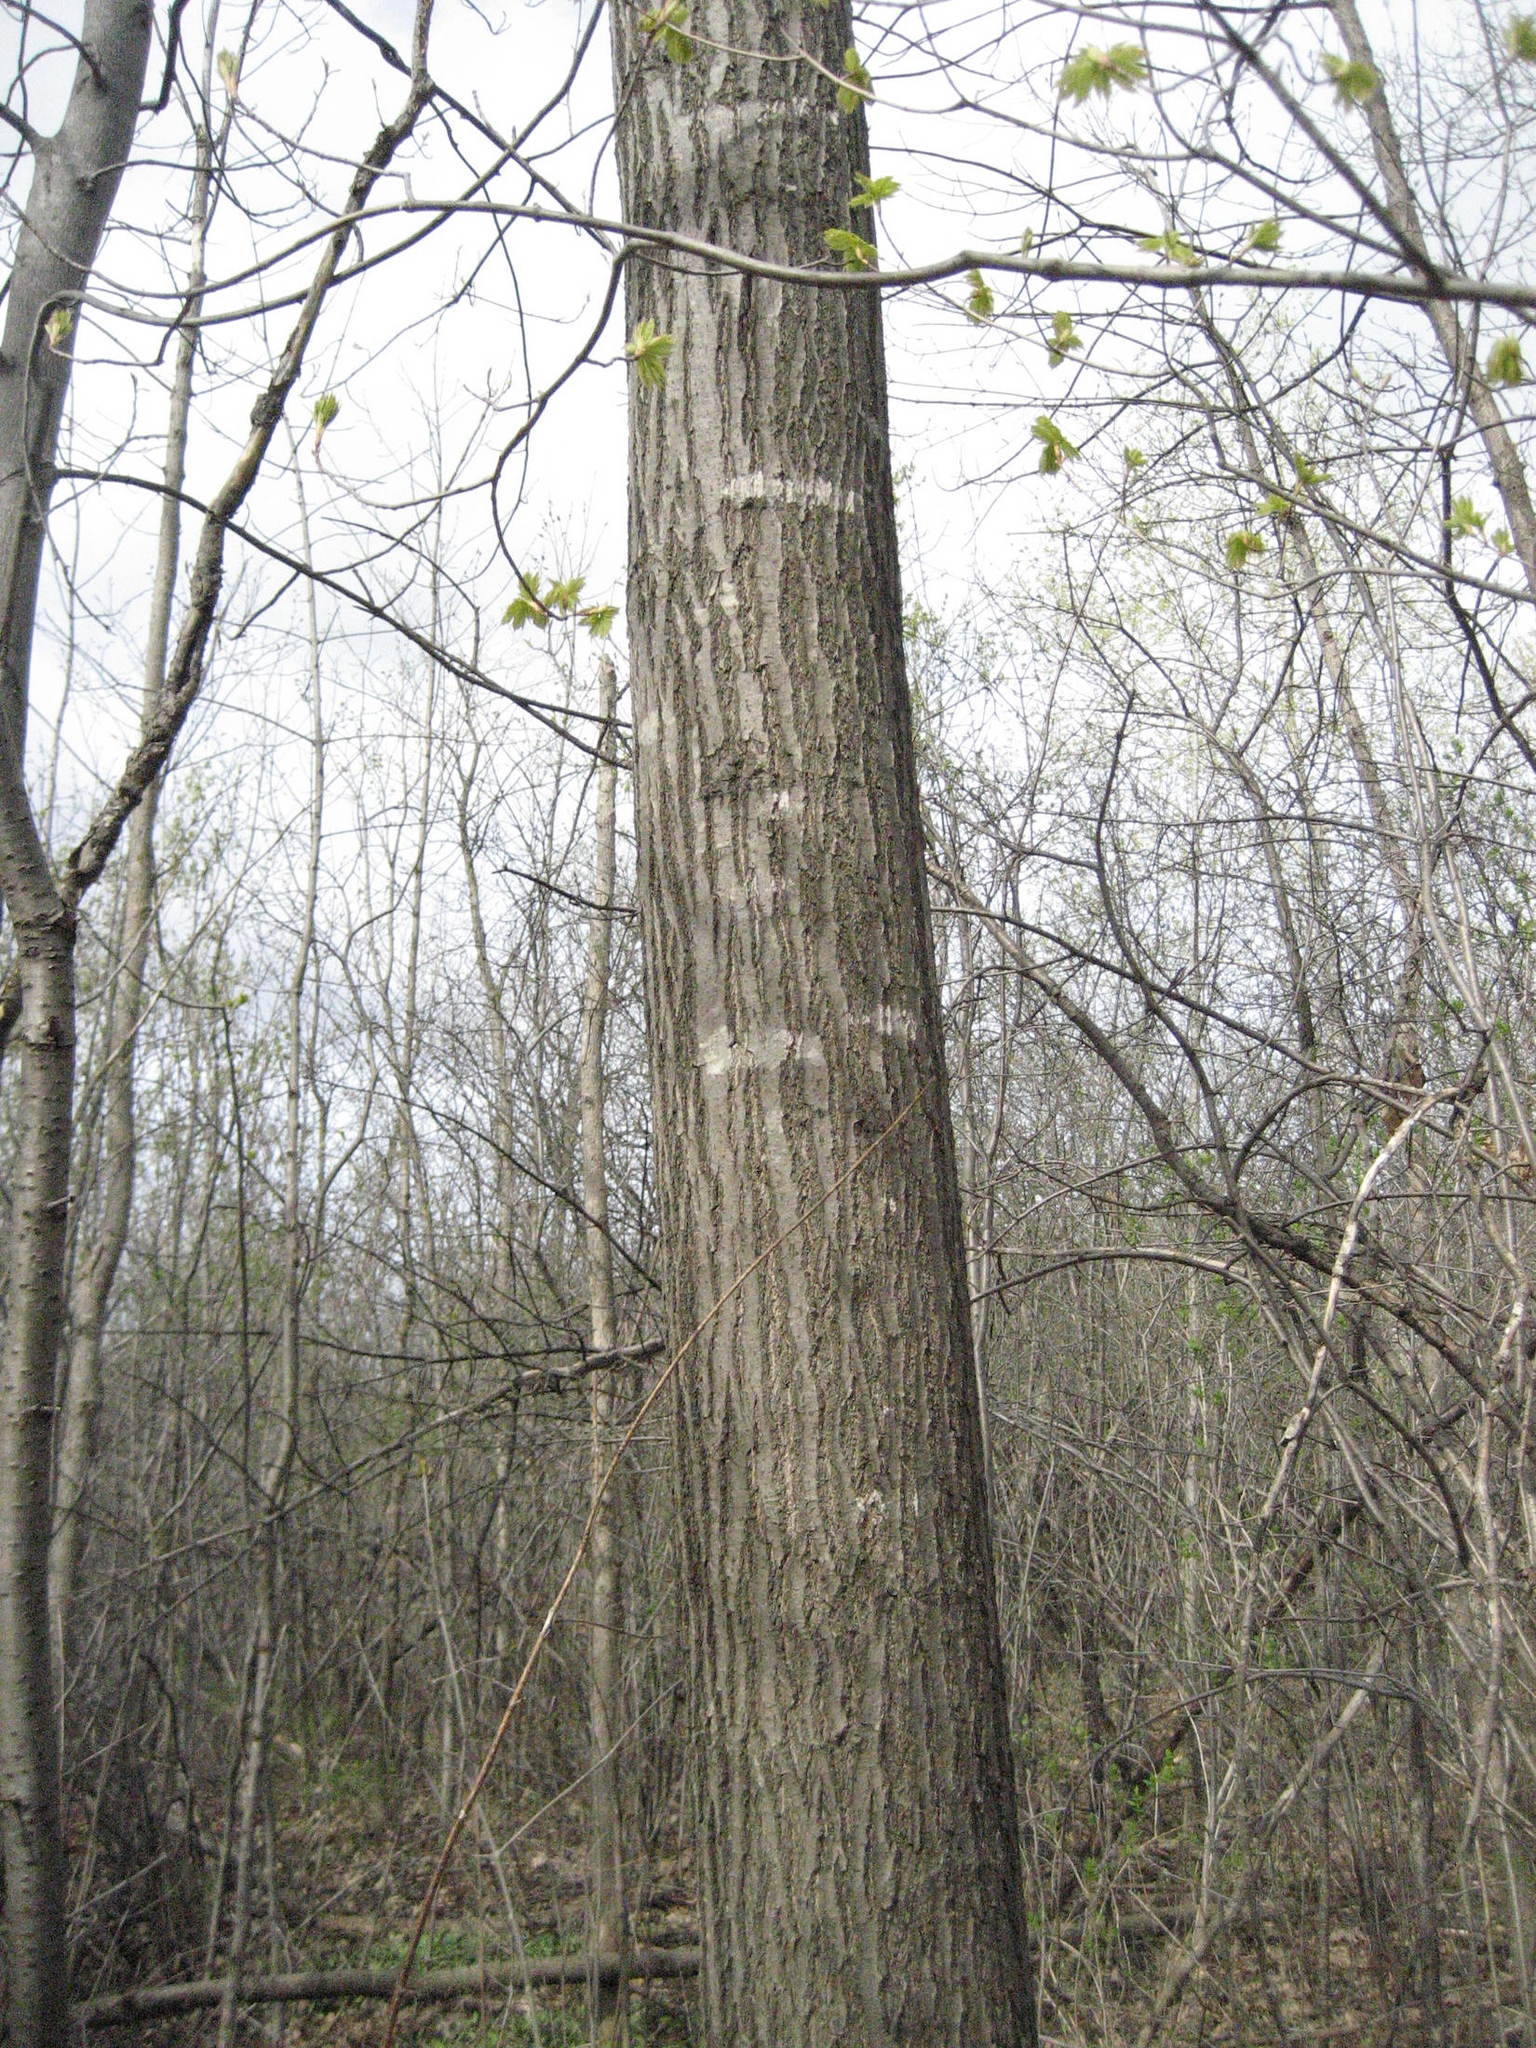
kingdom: Plantae
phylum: Tracheophyta
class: Magnoliopsida
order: Fagales
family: Fagaceae
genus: Quercus
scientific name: Quercus rubra
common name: Red oak
